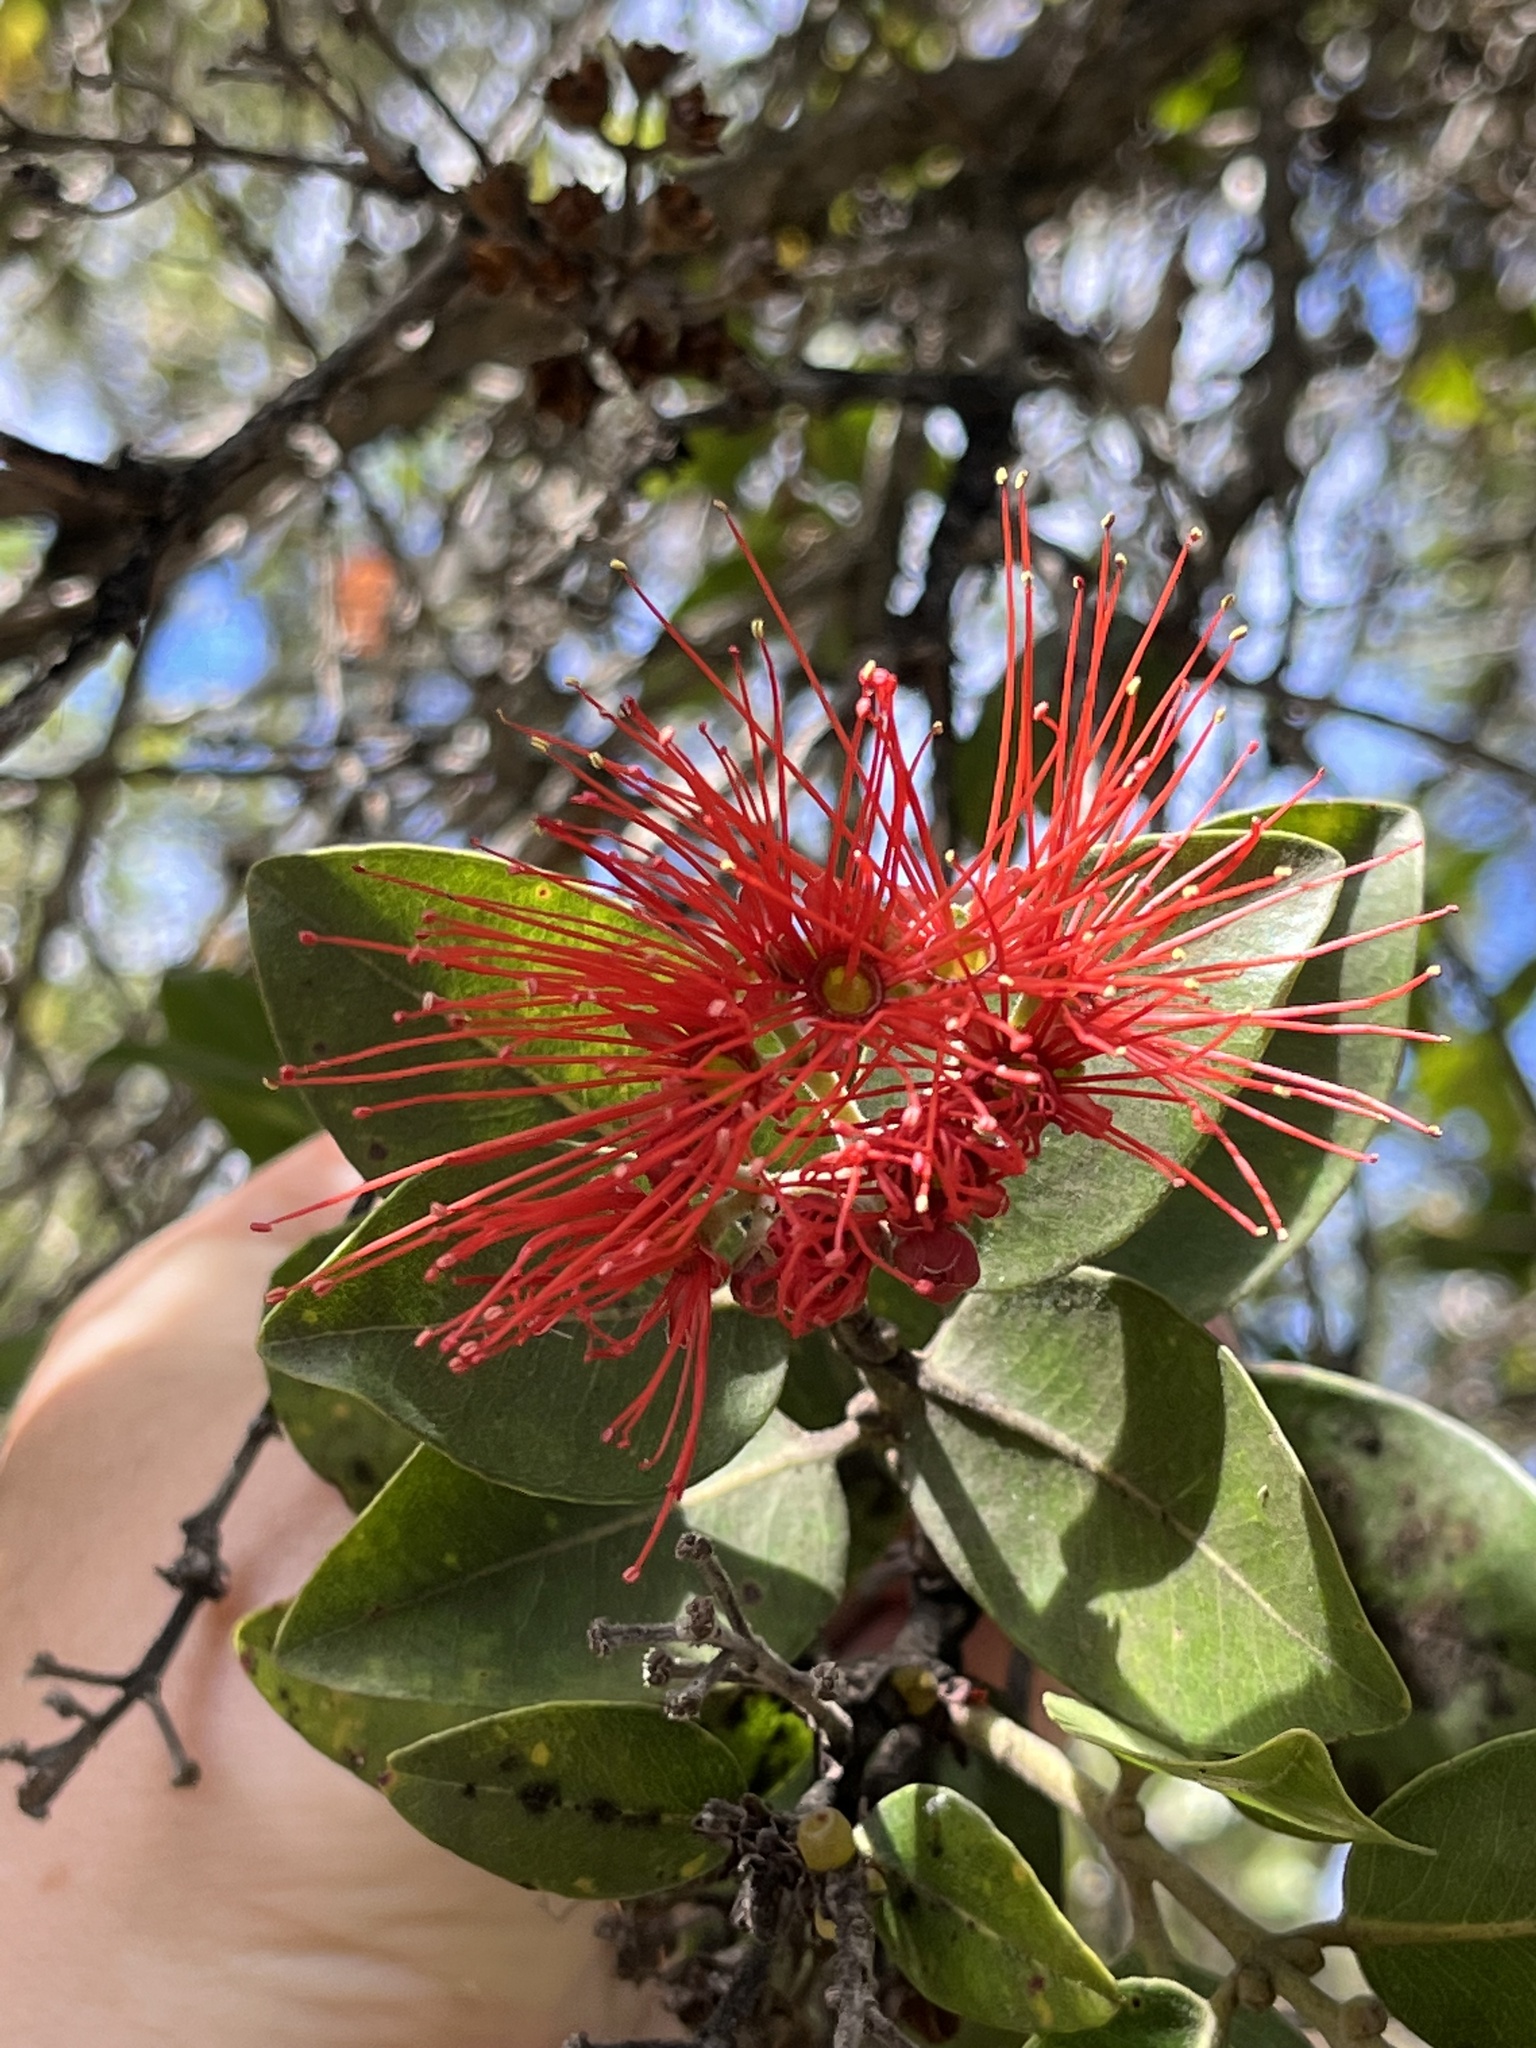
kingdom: Plantae
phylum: Tracheophyta
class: Magnoliopsida
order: Myrtales
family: Myrtaceae
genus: Metrosideros
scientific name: Metrosideros polymorpha
